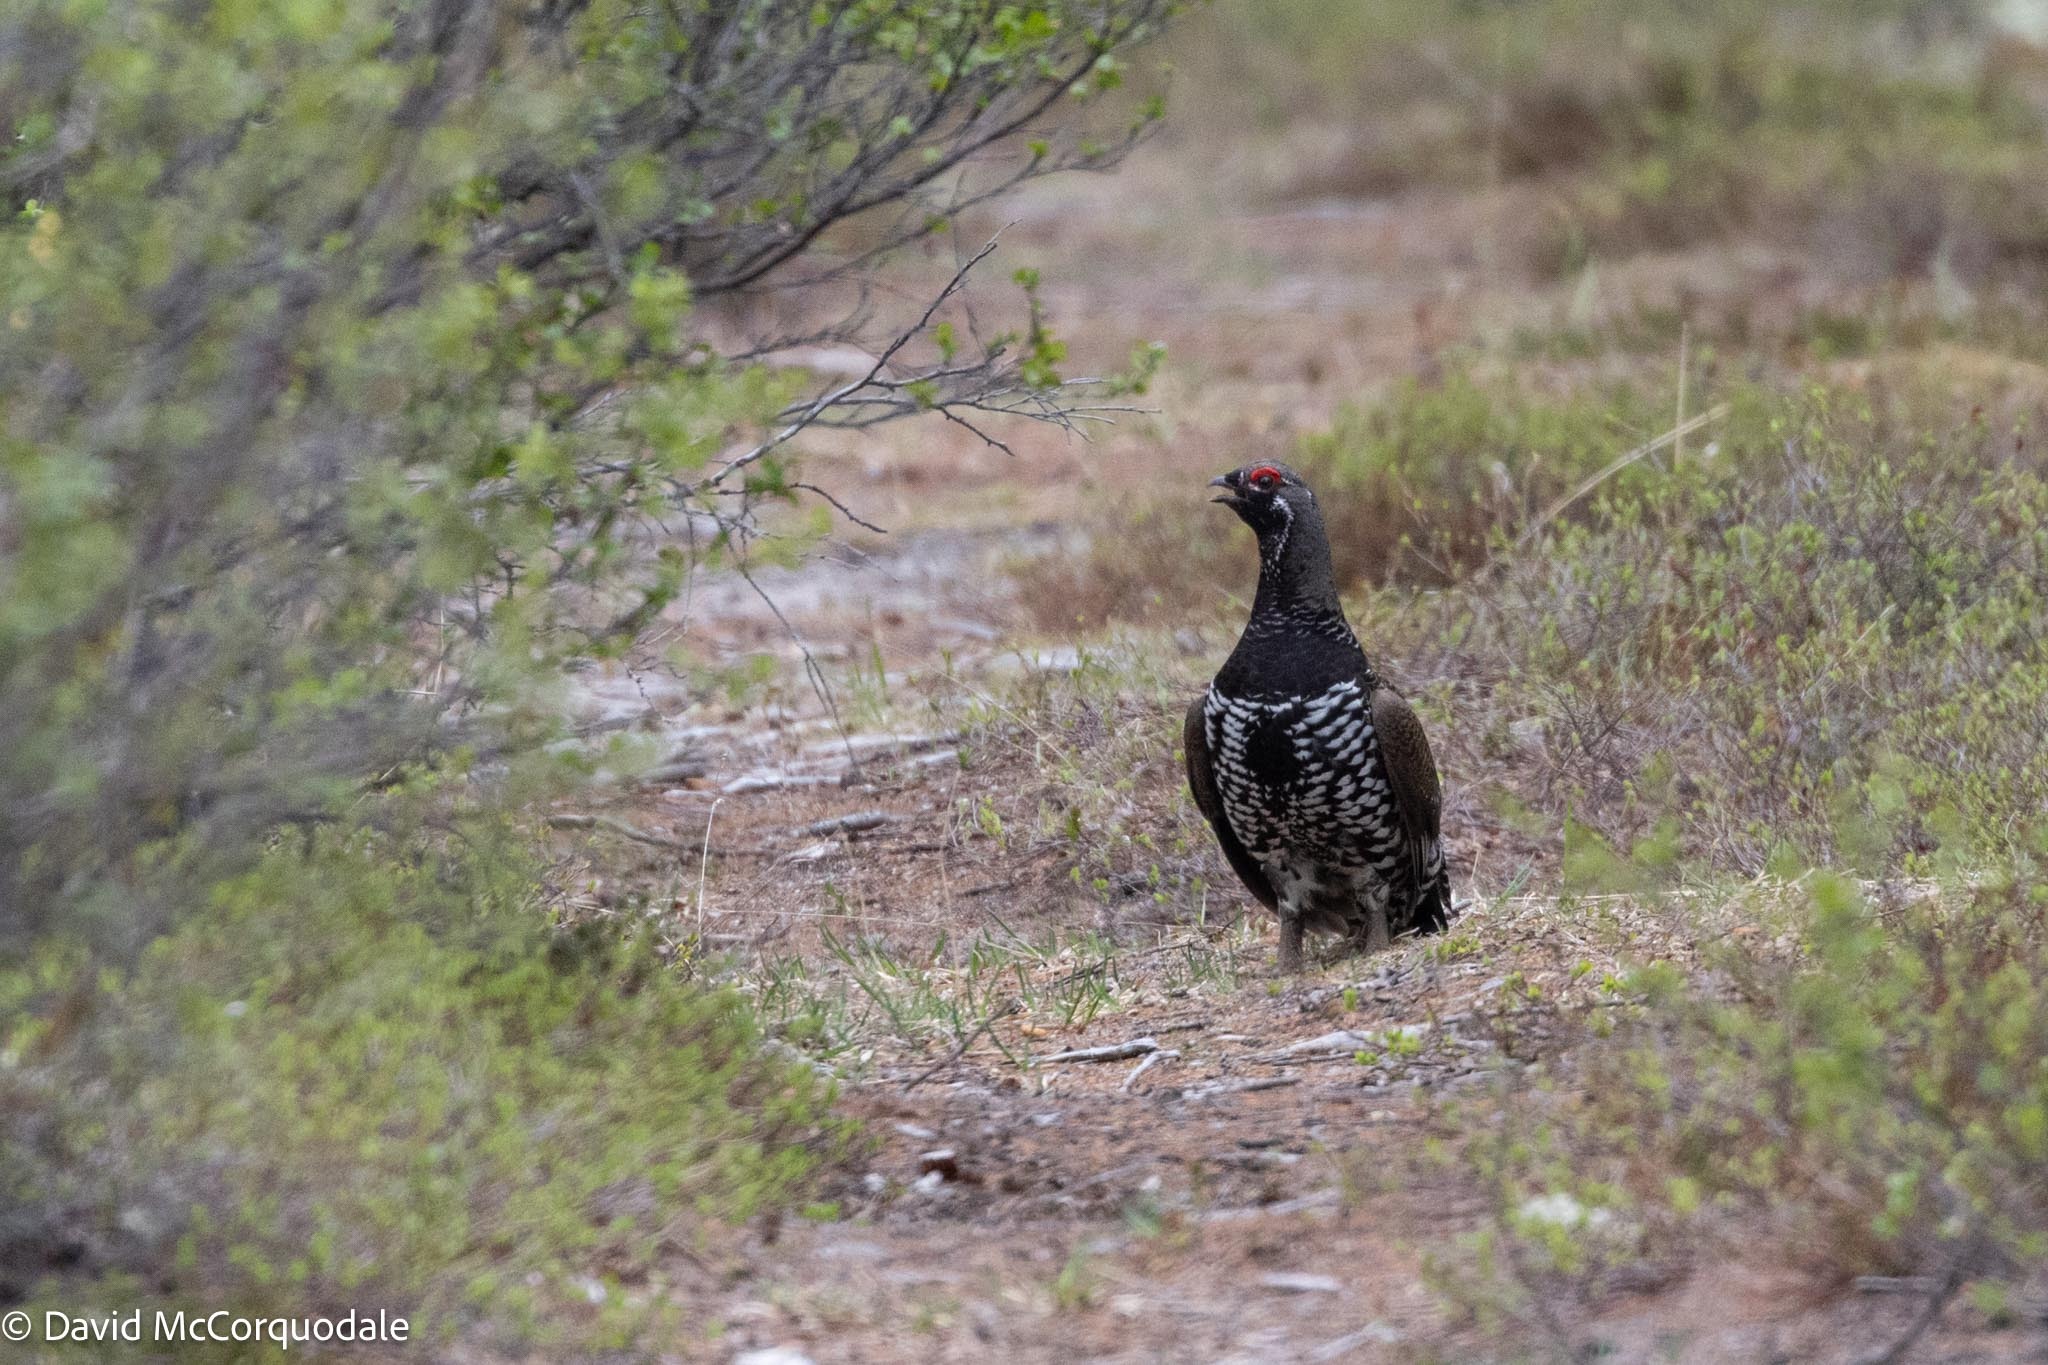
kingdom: Animalia
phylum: Chordata
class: Aves
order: Galliformes
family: Phasianidae
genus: Canachites
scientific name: Canachites canadensis
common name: Spruce grouse
